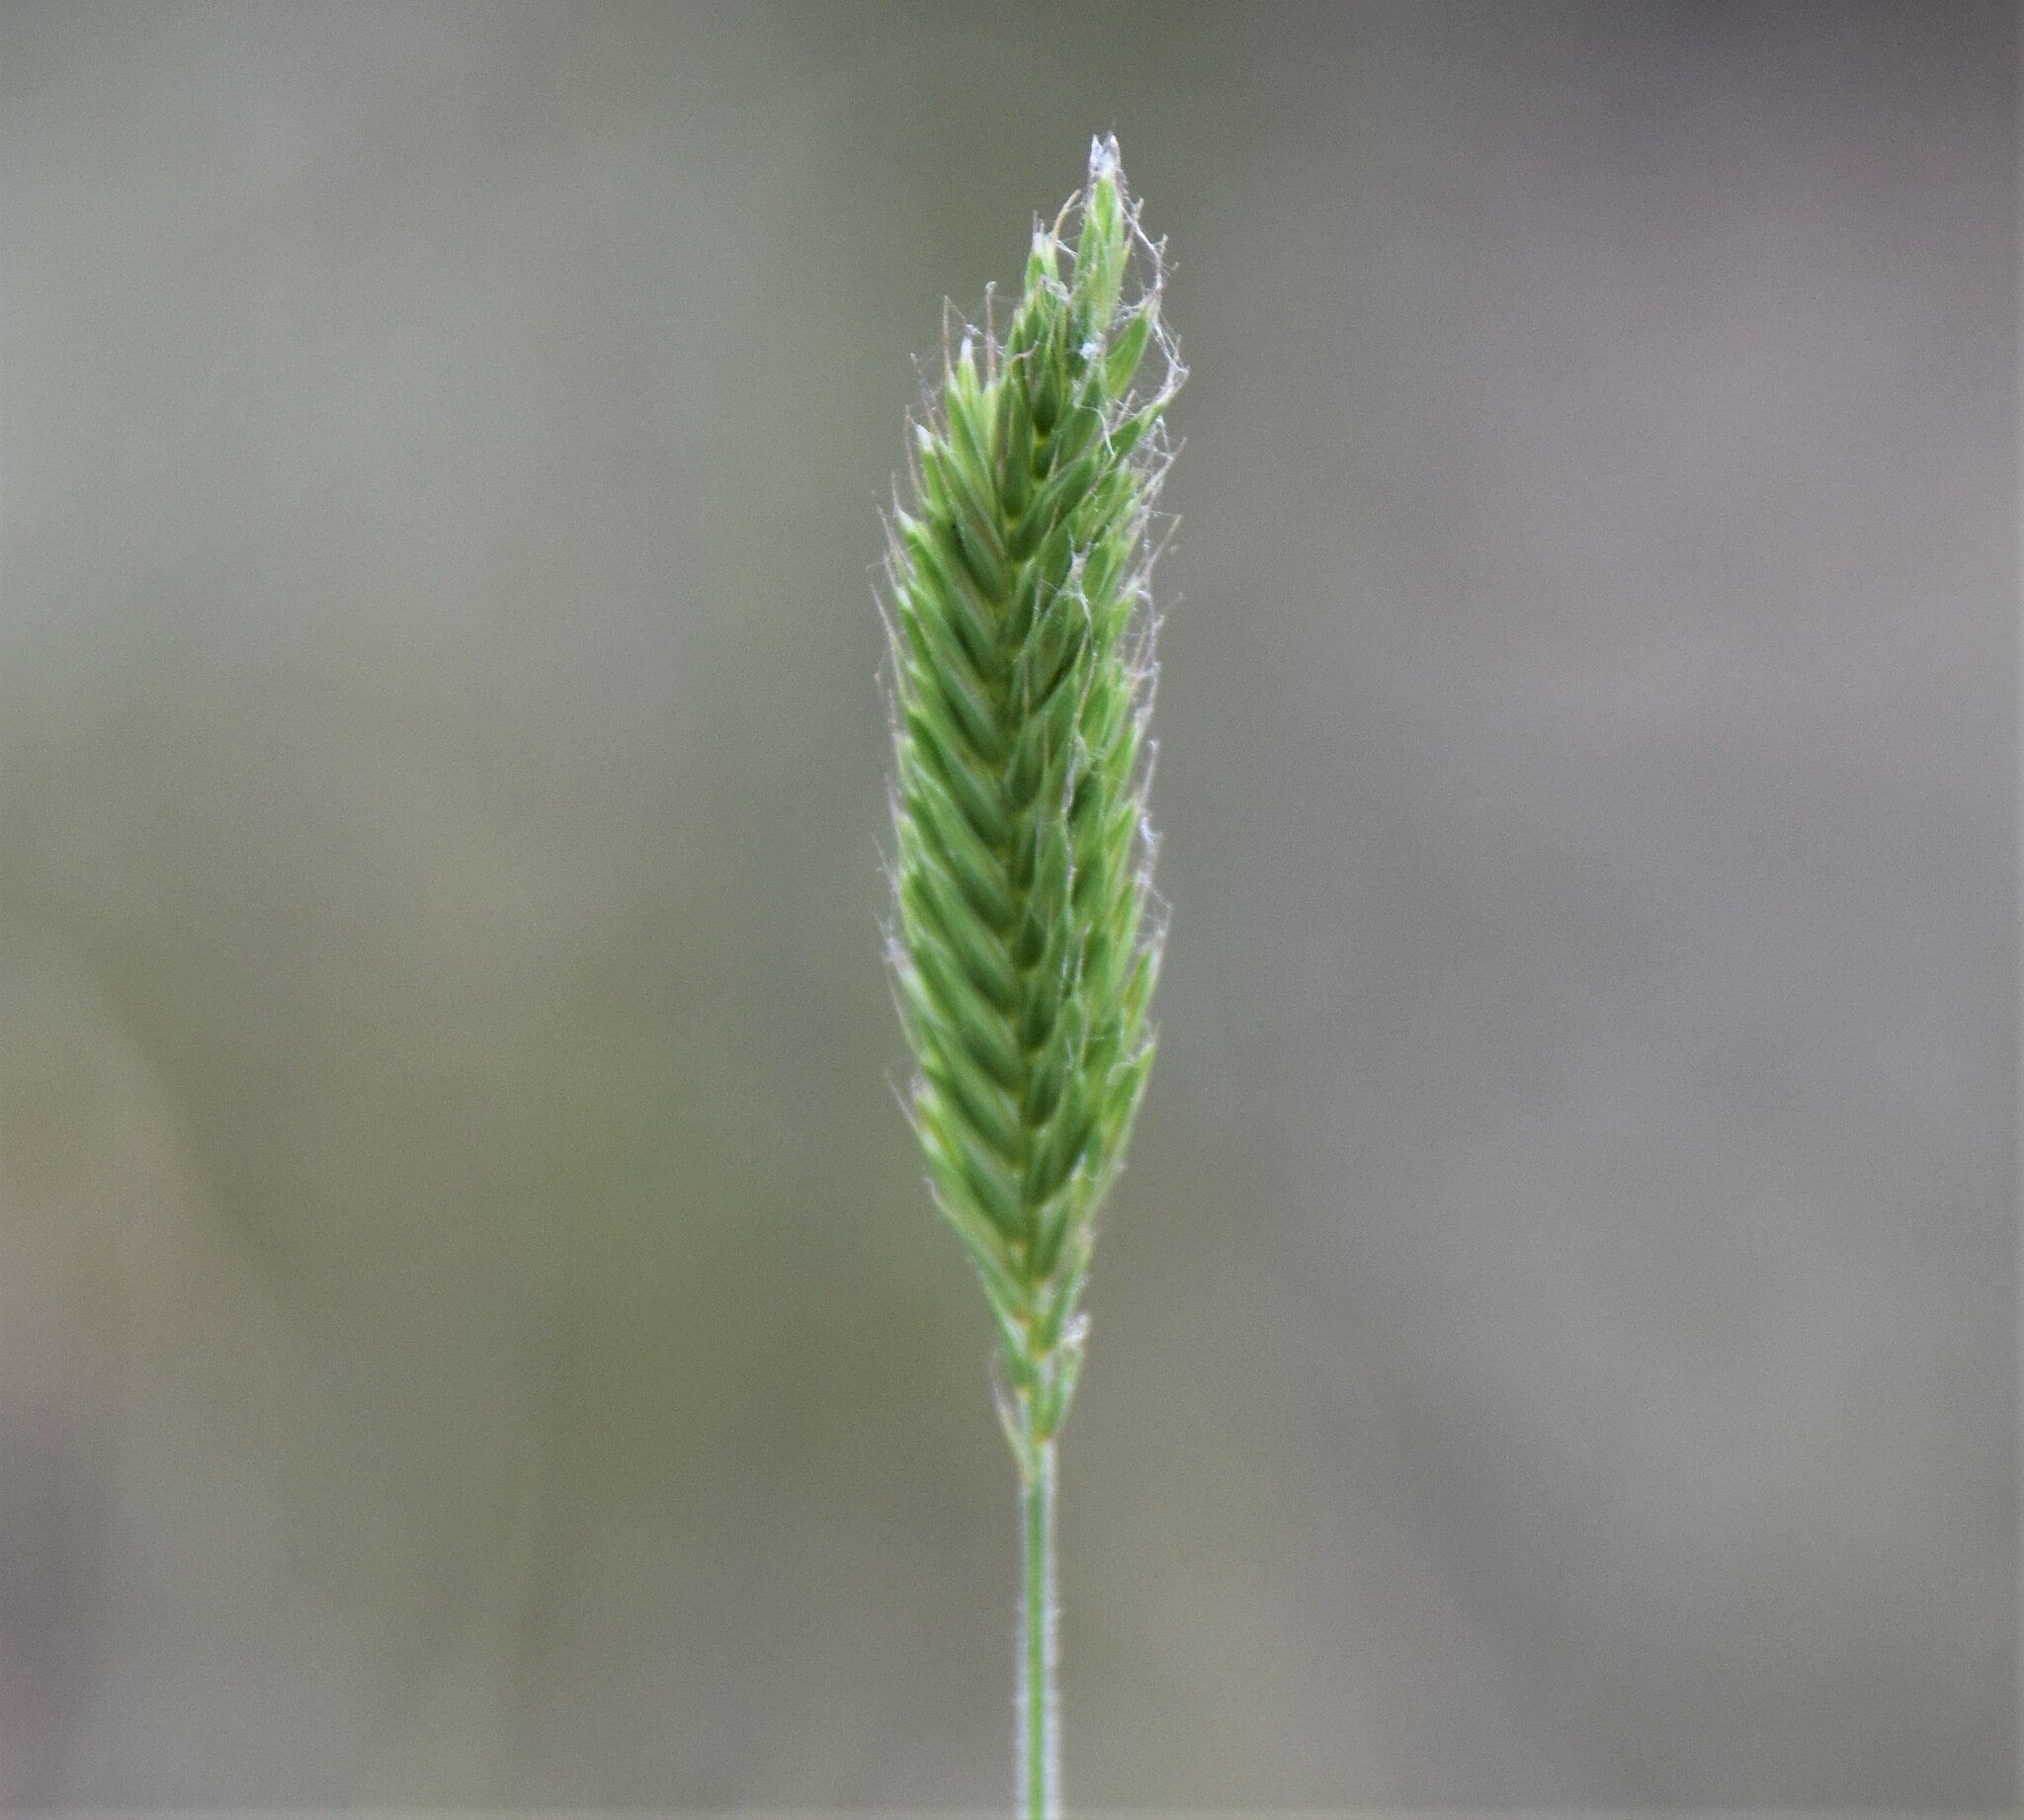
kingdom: Plantae
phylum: Tracheophyta
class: Liliopsida
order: Poales
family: Poaceae
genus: Agropyron
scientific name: Agropyron cristatum
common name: Crested wheatgrass
